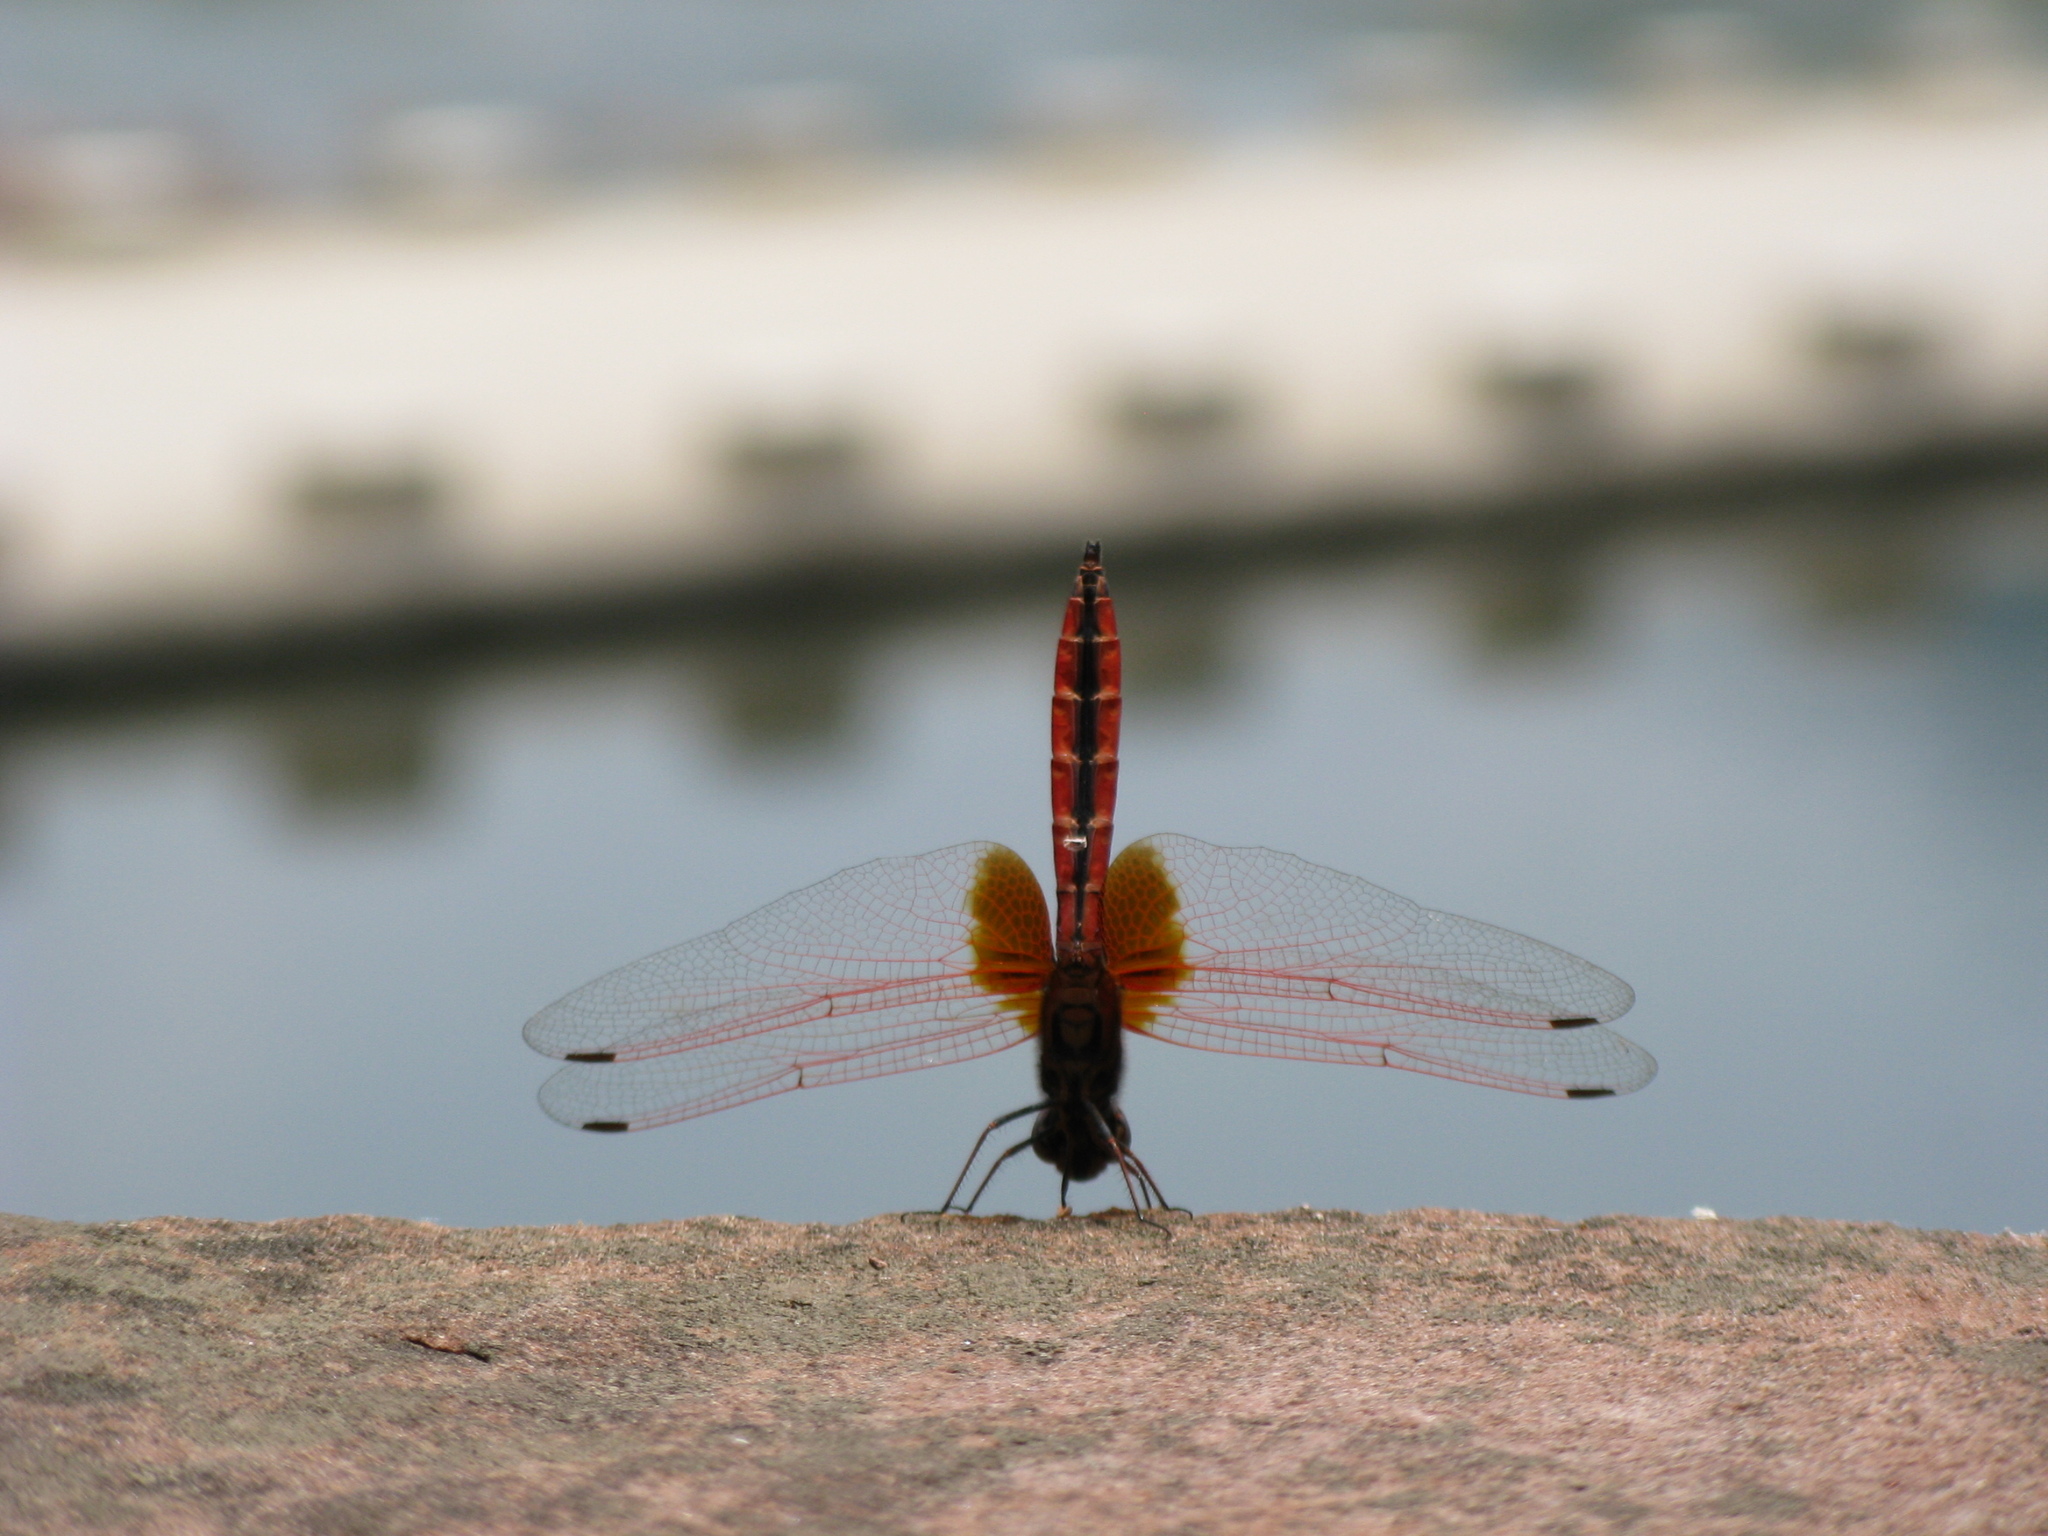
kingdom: Animalia
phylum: Arthropoda
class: Insecta
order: Odonata
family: Libellulidae
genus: Trithemis
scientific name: Trithemis aurora
